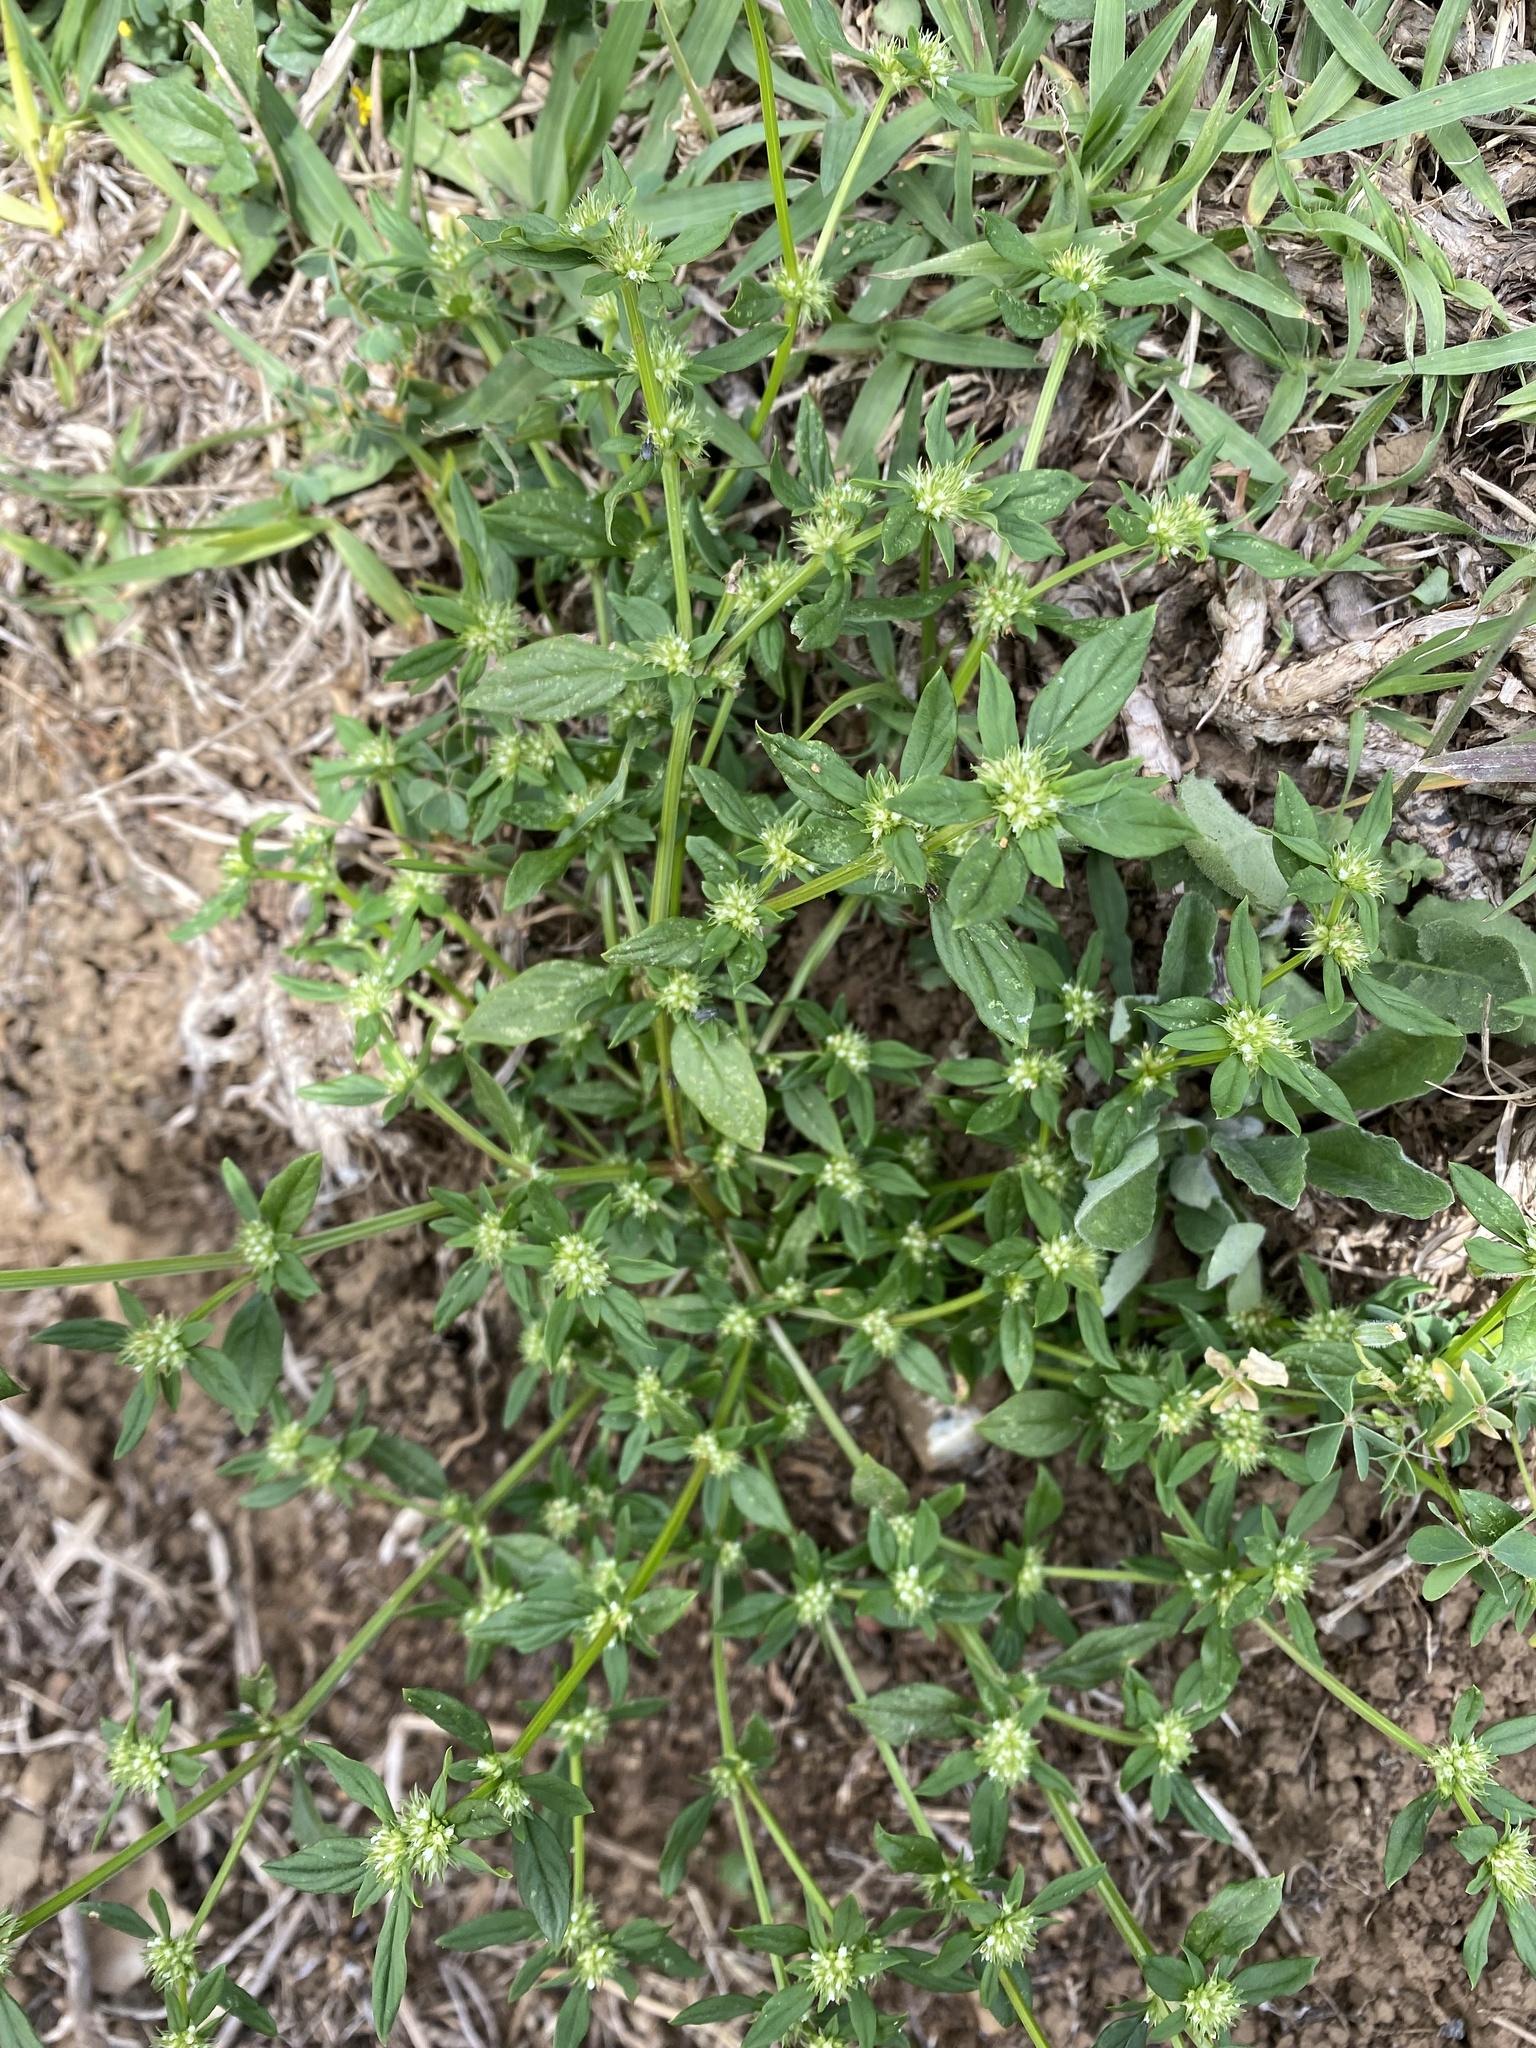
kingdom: Plantae
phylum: Tracheophyta
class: Magnoliopsida
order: Gentianales
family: Rubiaceae
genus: Spermacoce
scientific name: Spermacoce ovalifolia
